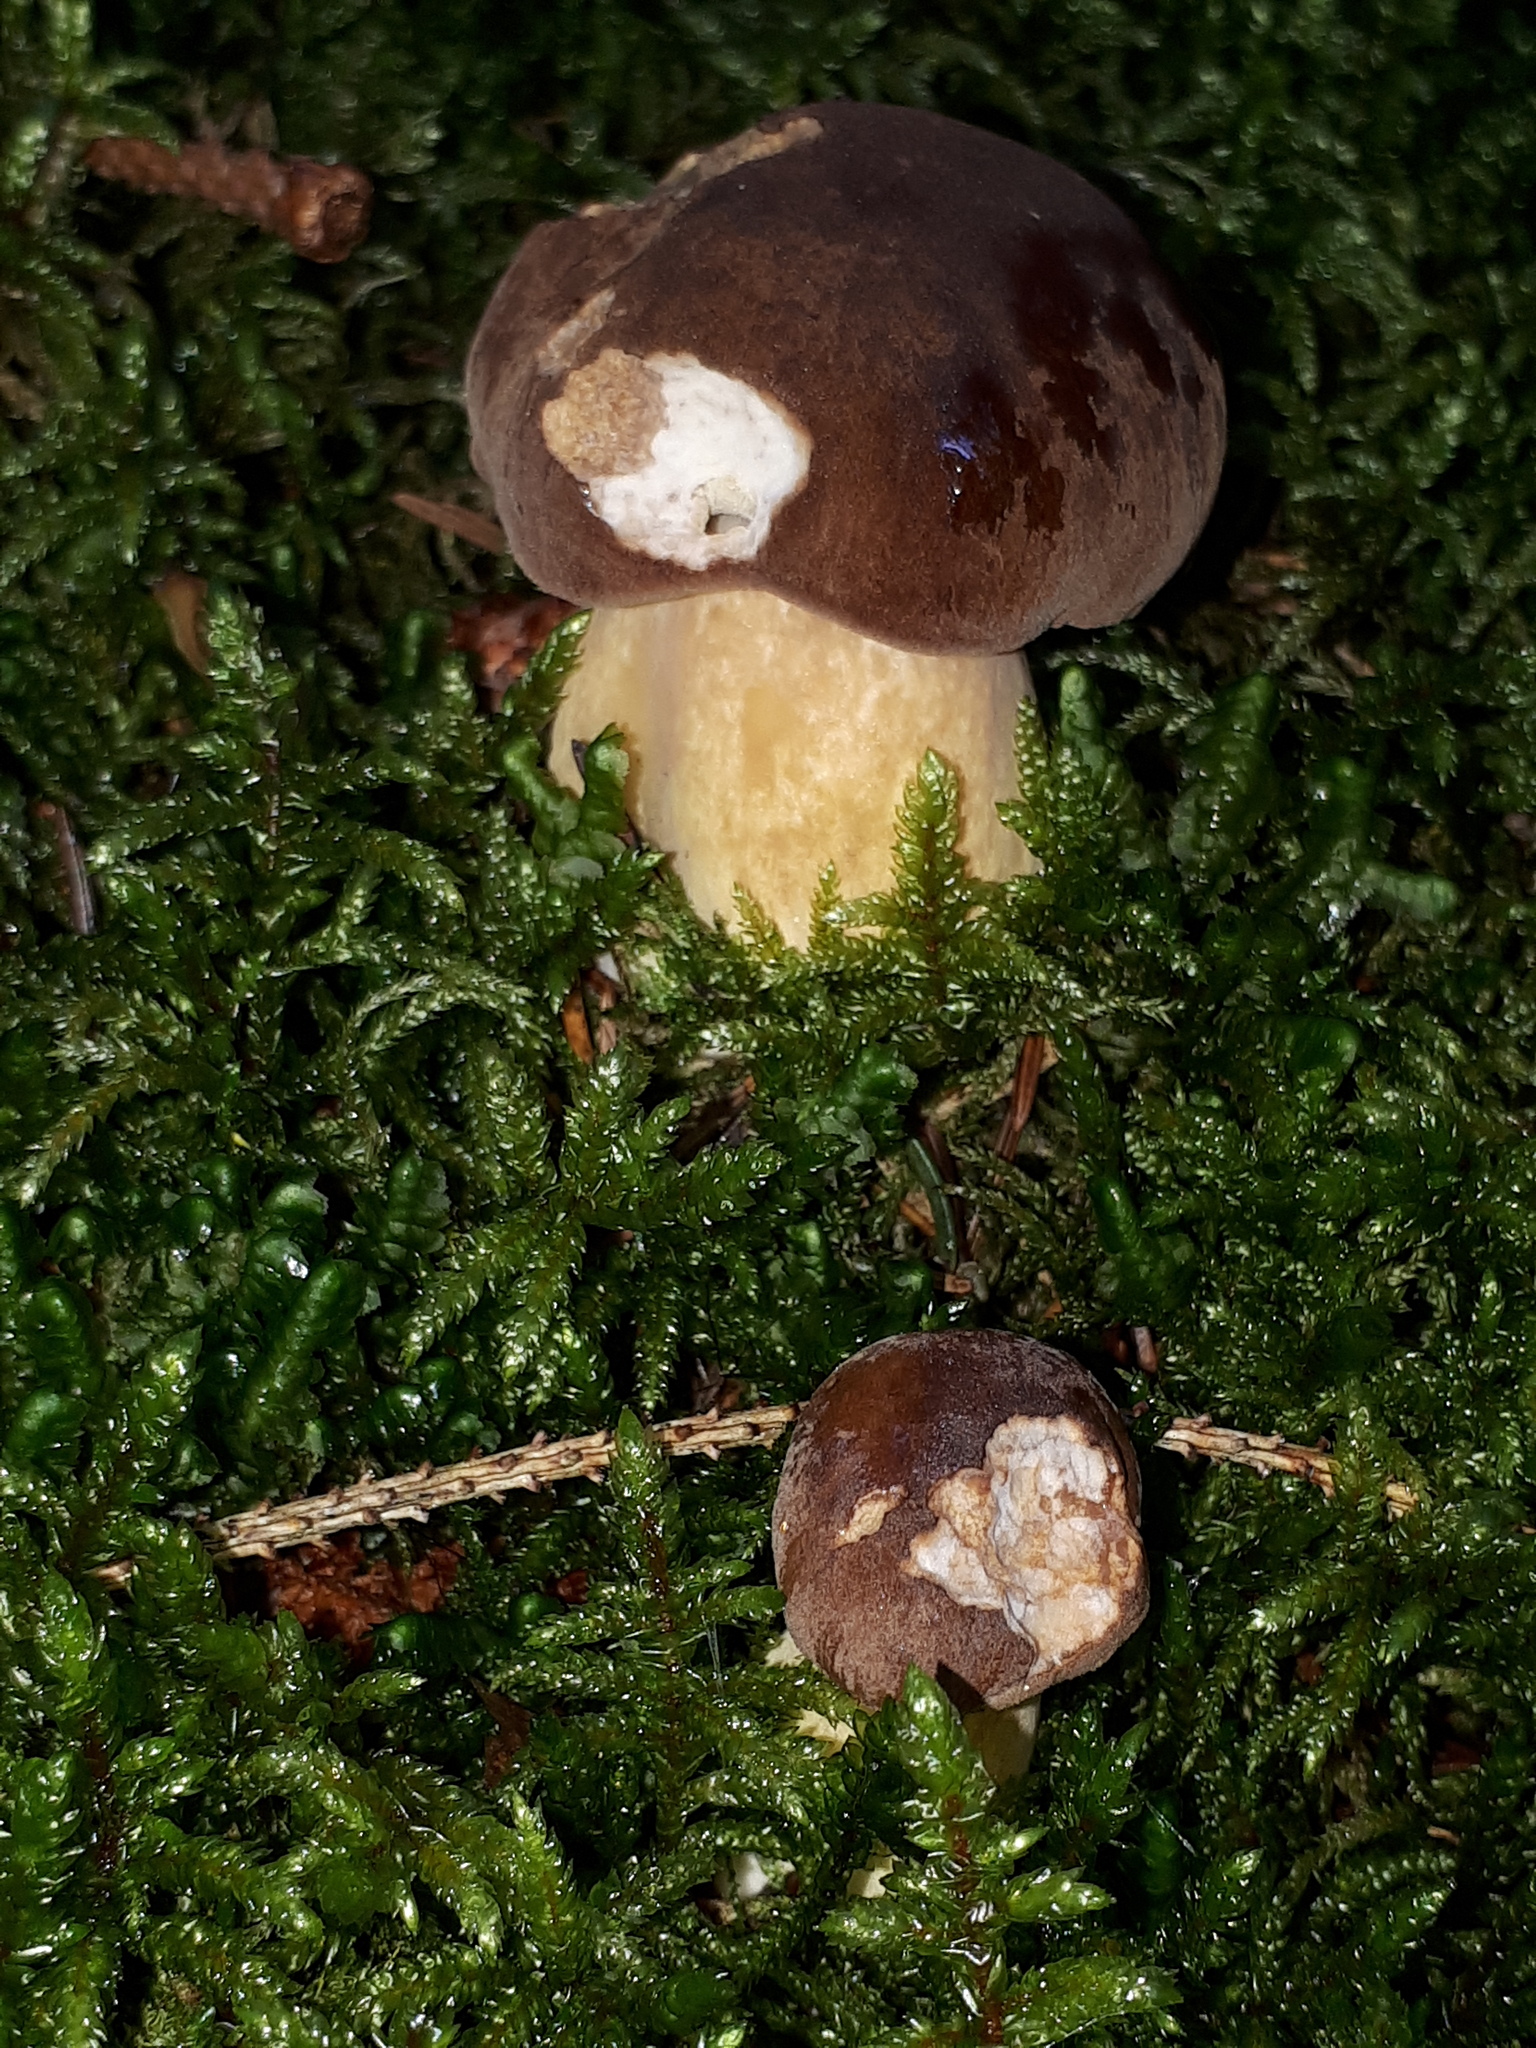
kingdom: Fungi
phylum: Basidiomycota
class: Agaricomycetes
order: Boletales
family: Boletaceae
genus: Imleria
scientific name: Imleria badia
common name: Bay bolete
